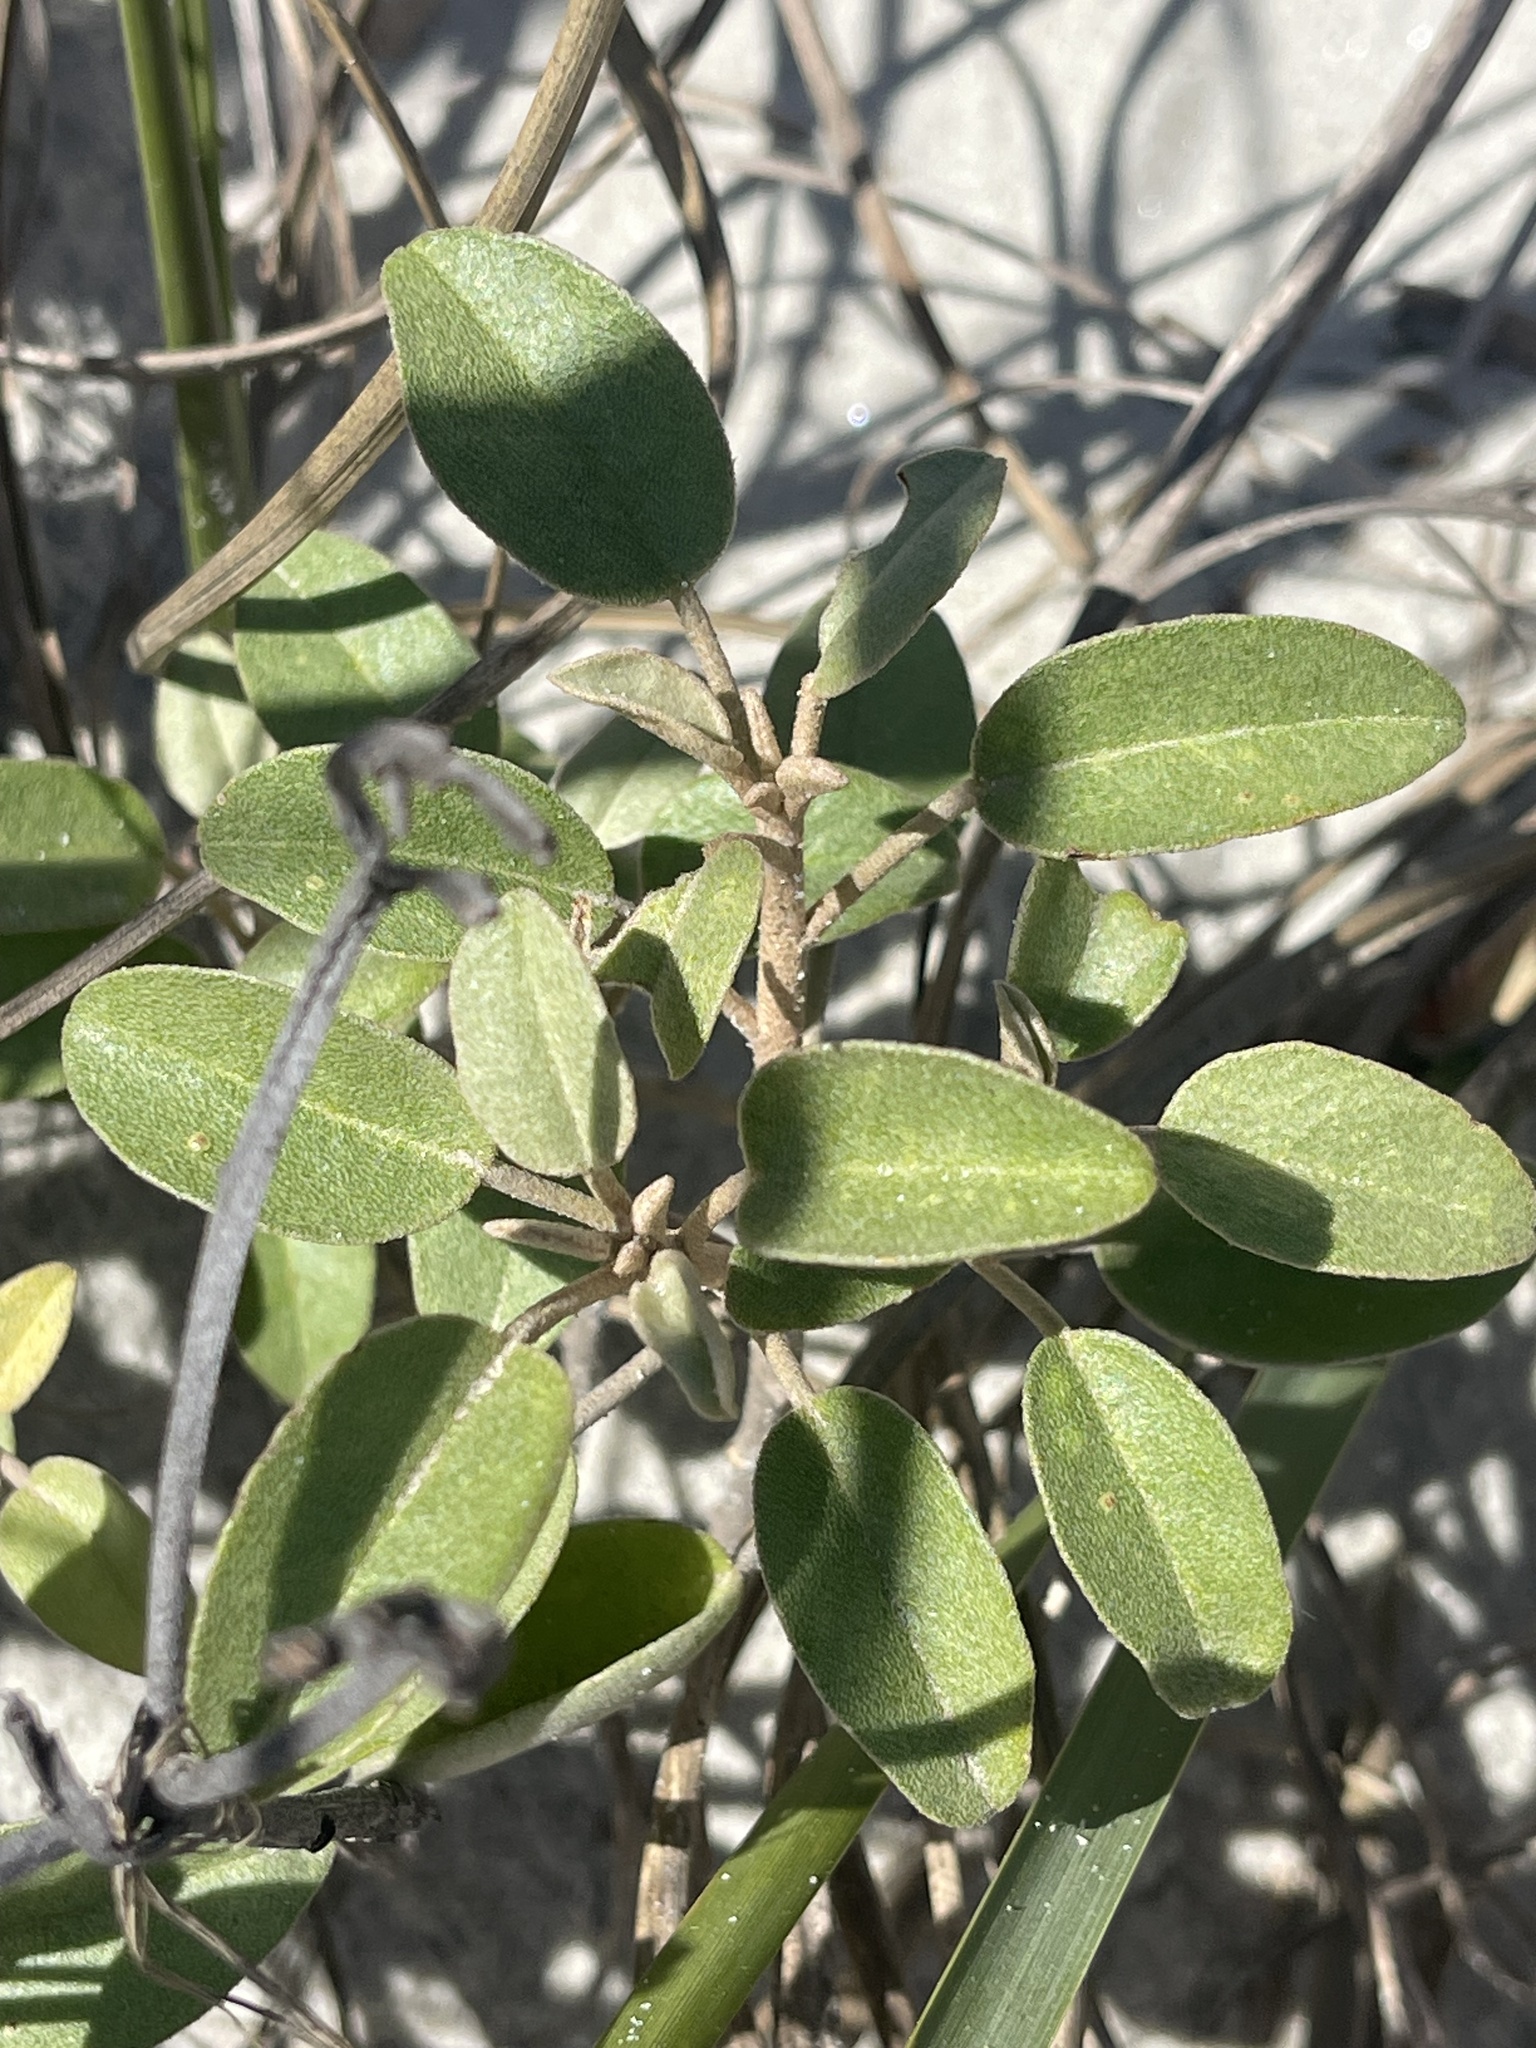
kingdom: Plantae
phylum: Tracheophyta
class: Magnoliopsida
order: Malpighiales
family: Euphorbiaceae
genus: Croton
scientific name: Croton punctatus
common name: Beach-tea
